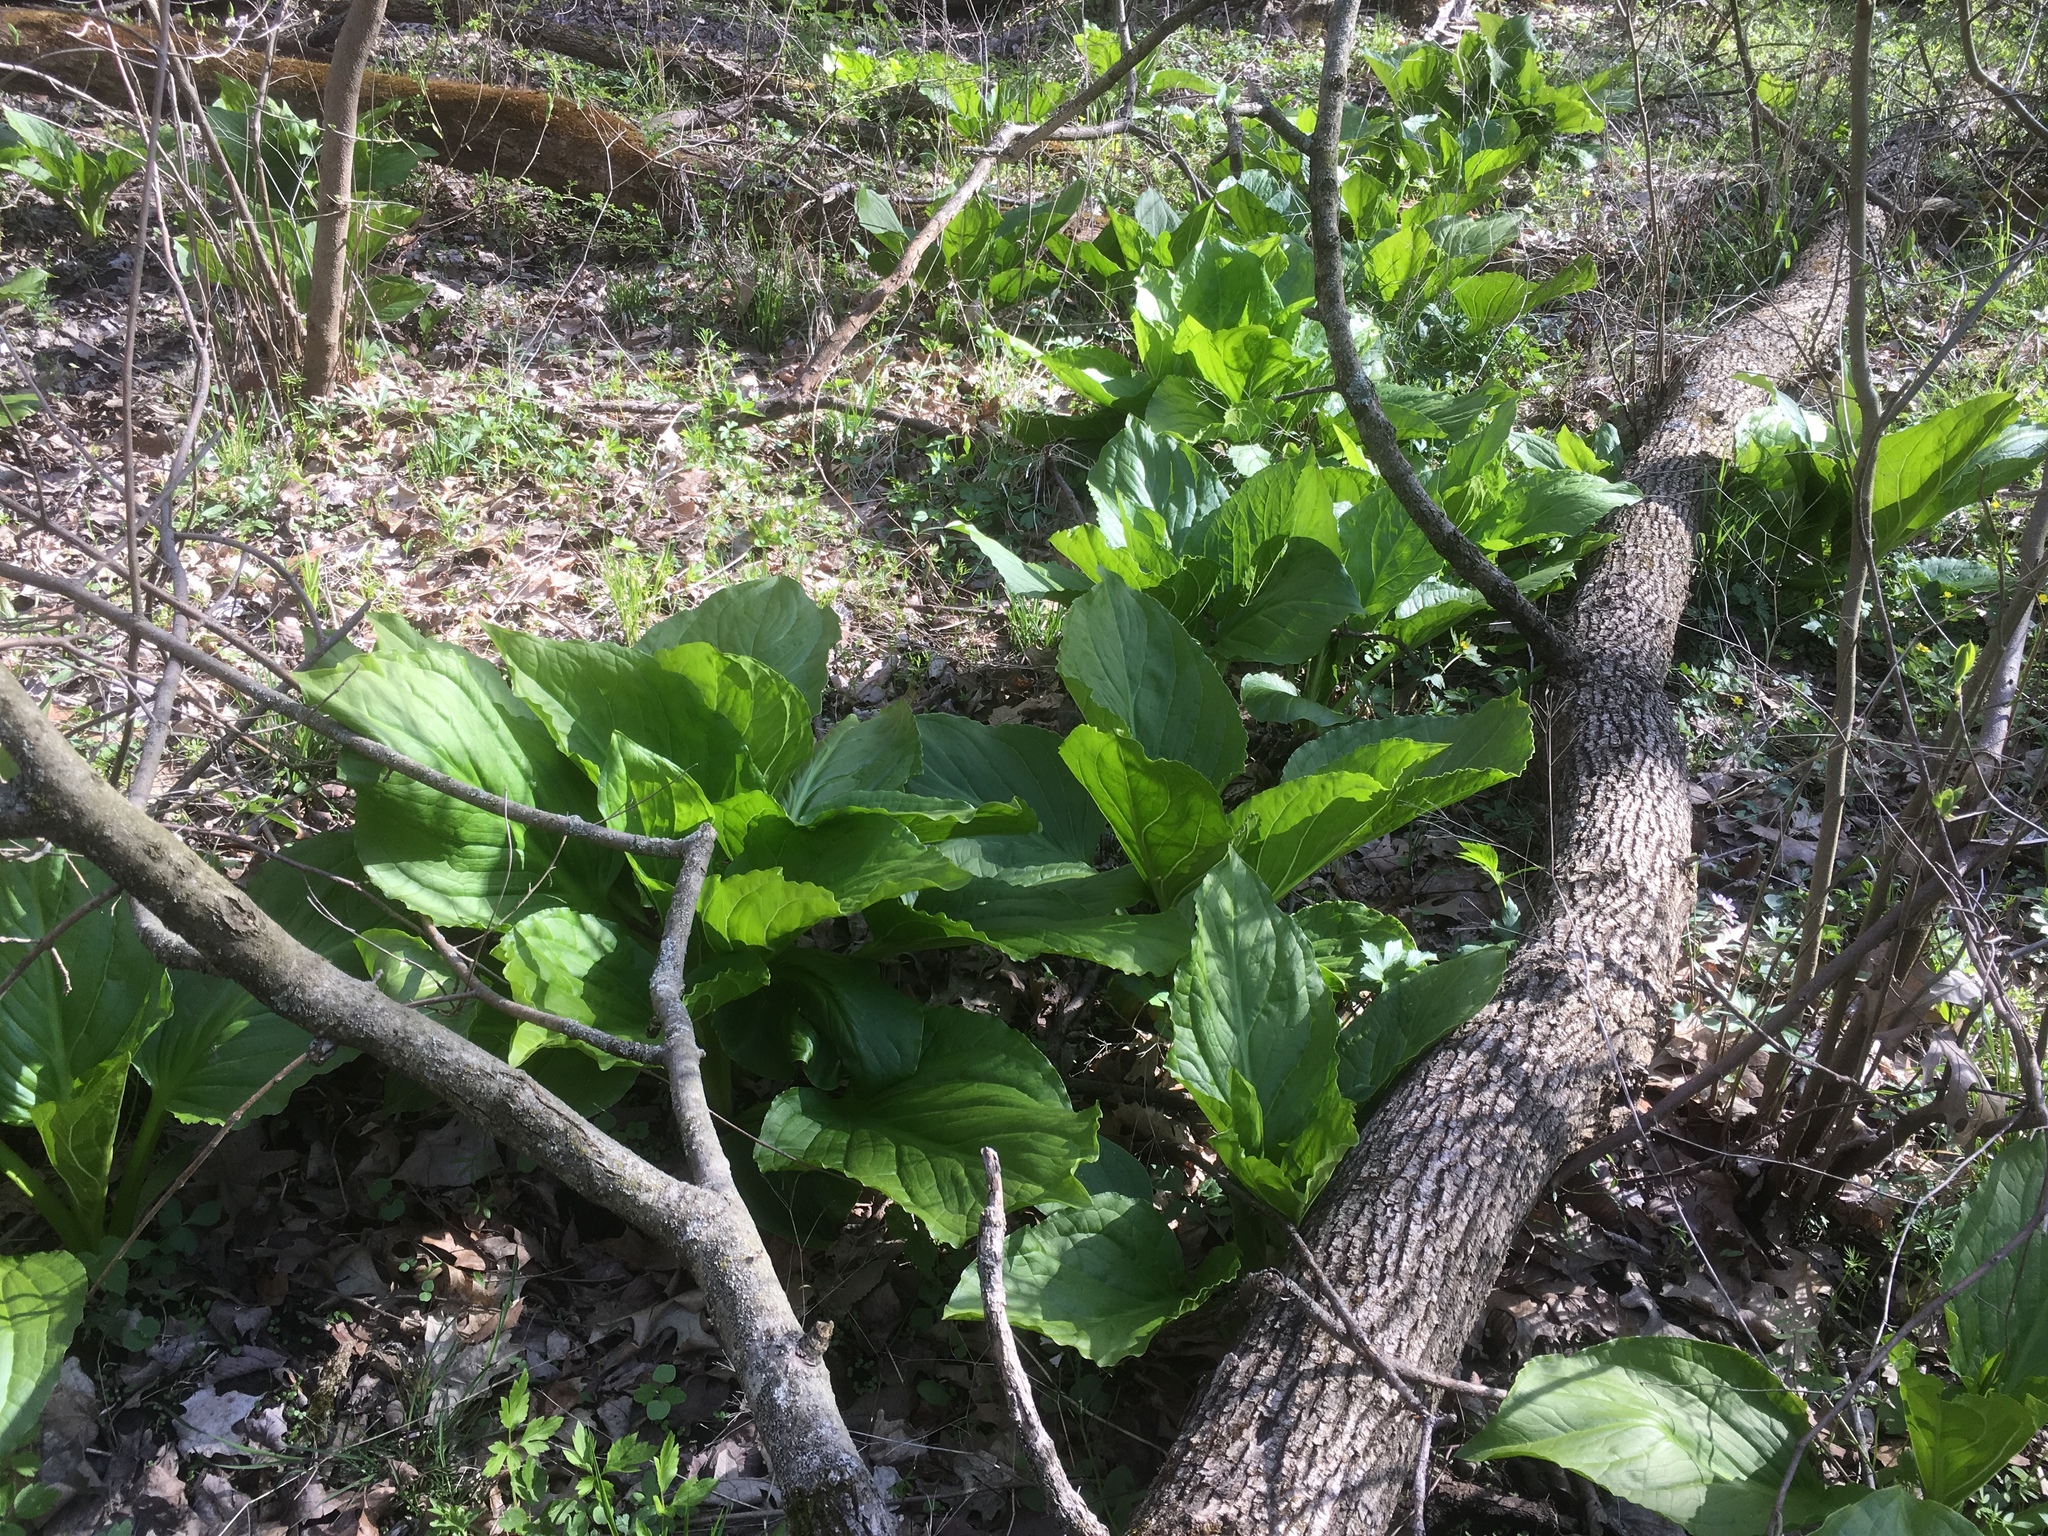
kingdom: Plantae
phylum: Tracheophyta
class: Liliopsida
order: Alismatales
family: Araceae
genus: Symplocarpus
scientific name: Symplocarpus foetidus
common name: Eastern skunk cabbage
